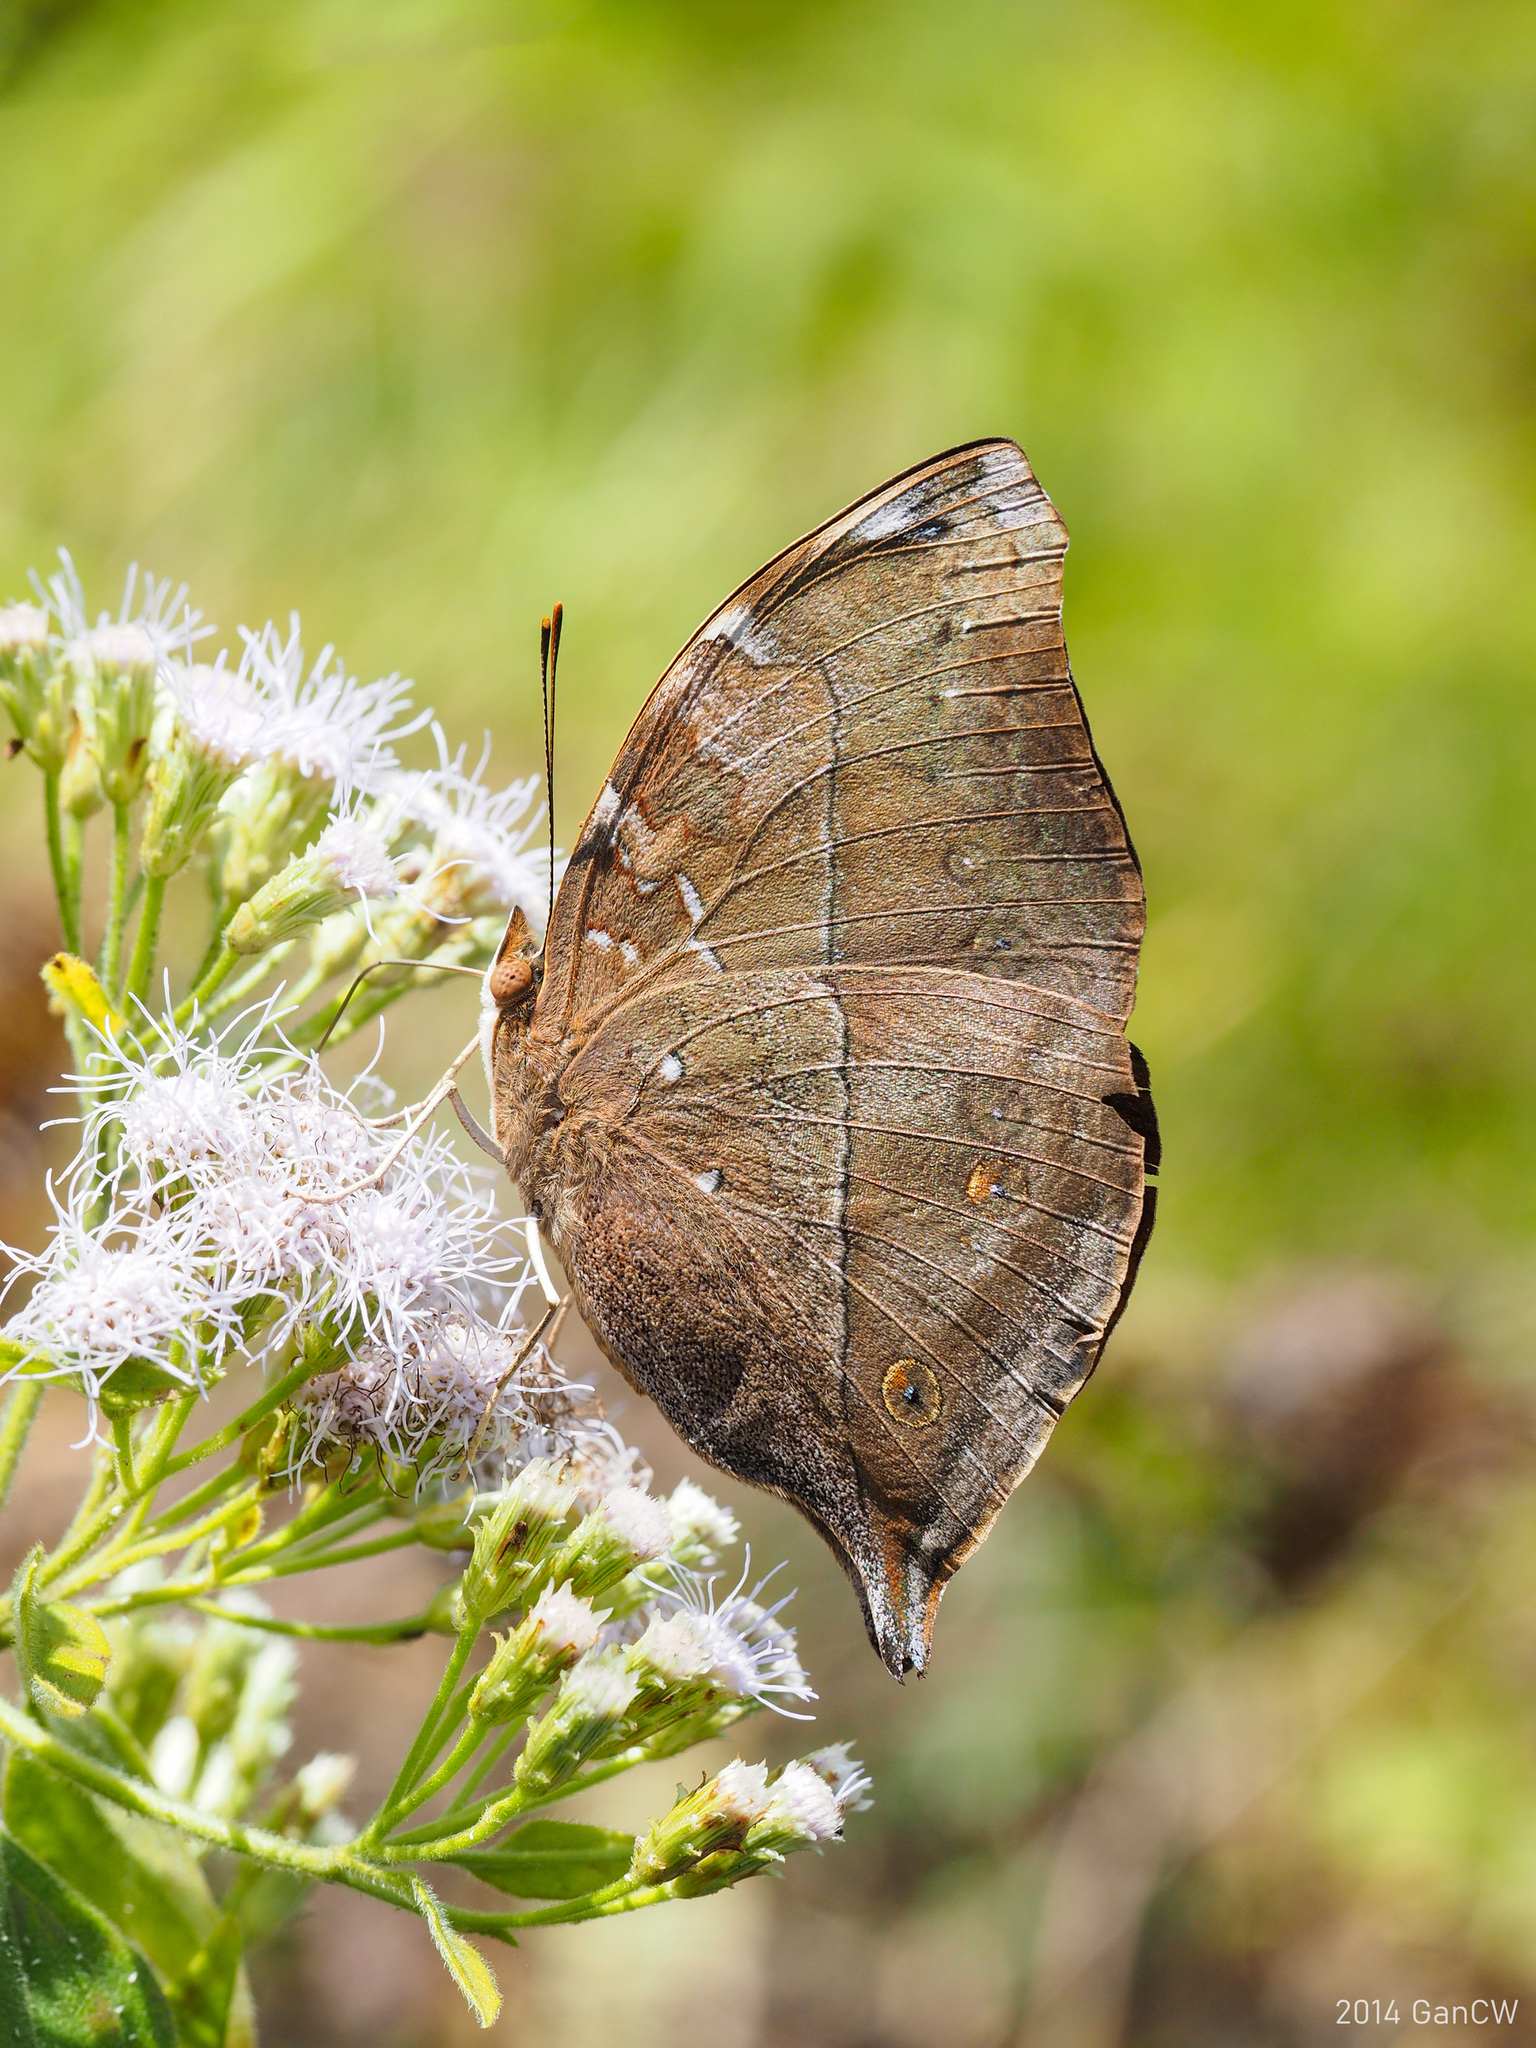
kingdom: Animalia
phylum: Arthropoda
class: Insecta
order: Lepidoptera
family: Nymphalidae
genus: Doleschallia
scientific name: Doleschallia bisaltide
